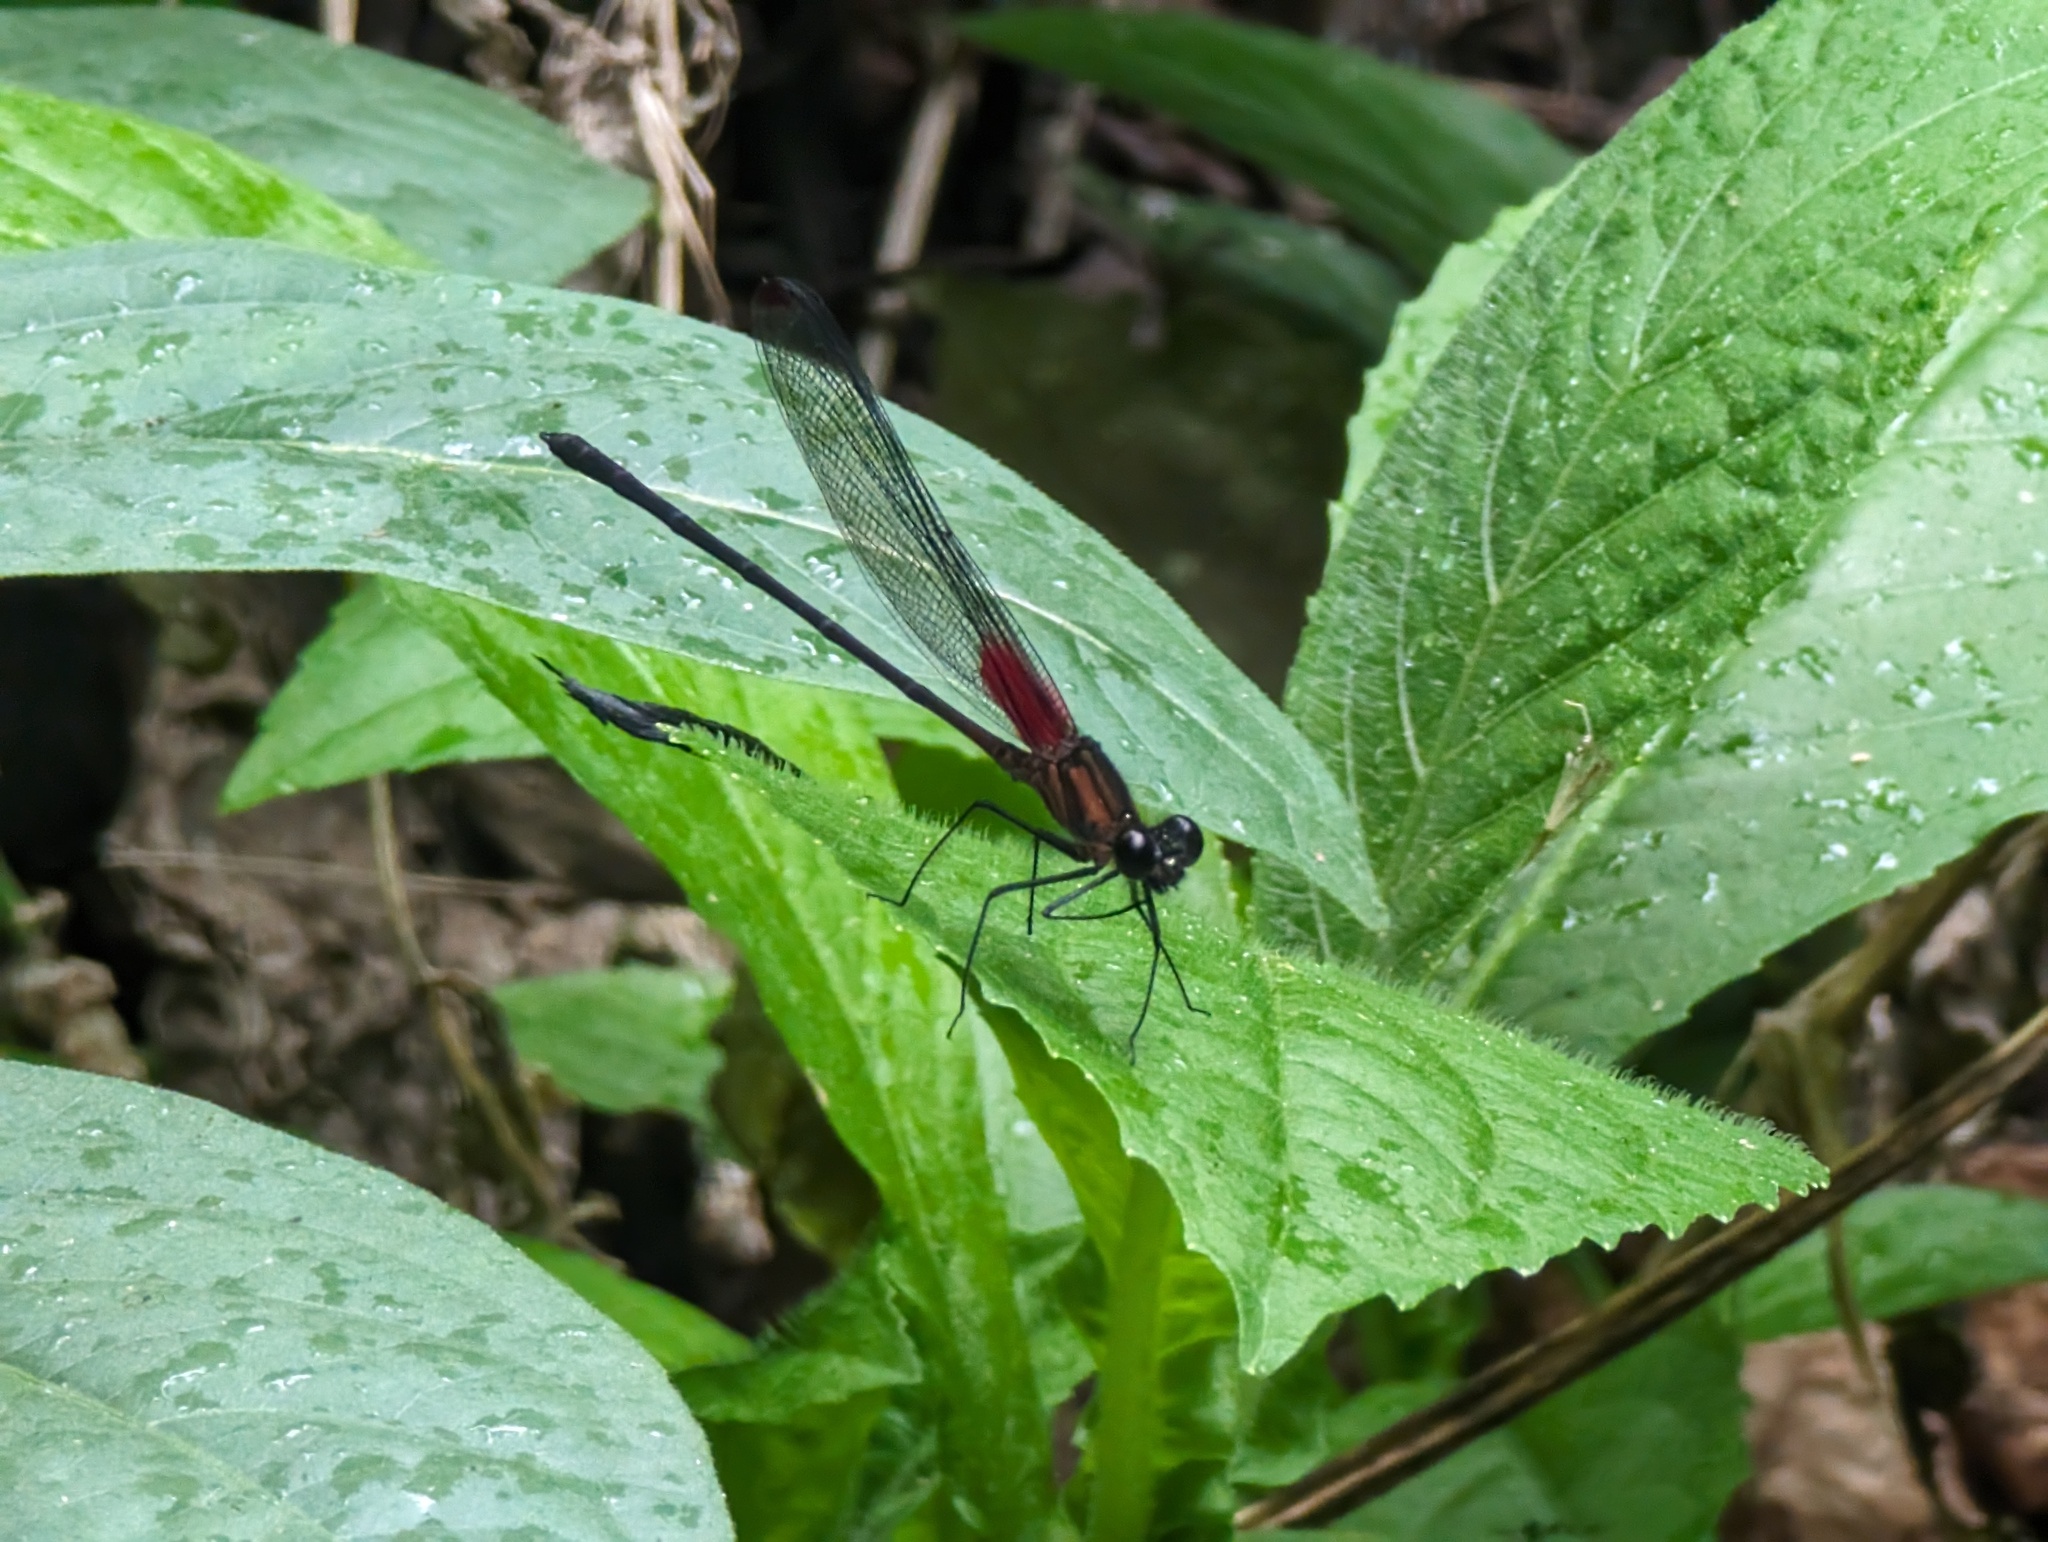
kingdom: Animalia
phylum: Arthropoda
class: Insecta
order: Odonata
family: Calopterygidae
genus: Hetaerina
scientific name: Hetaerina cruentata
